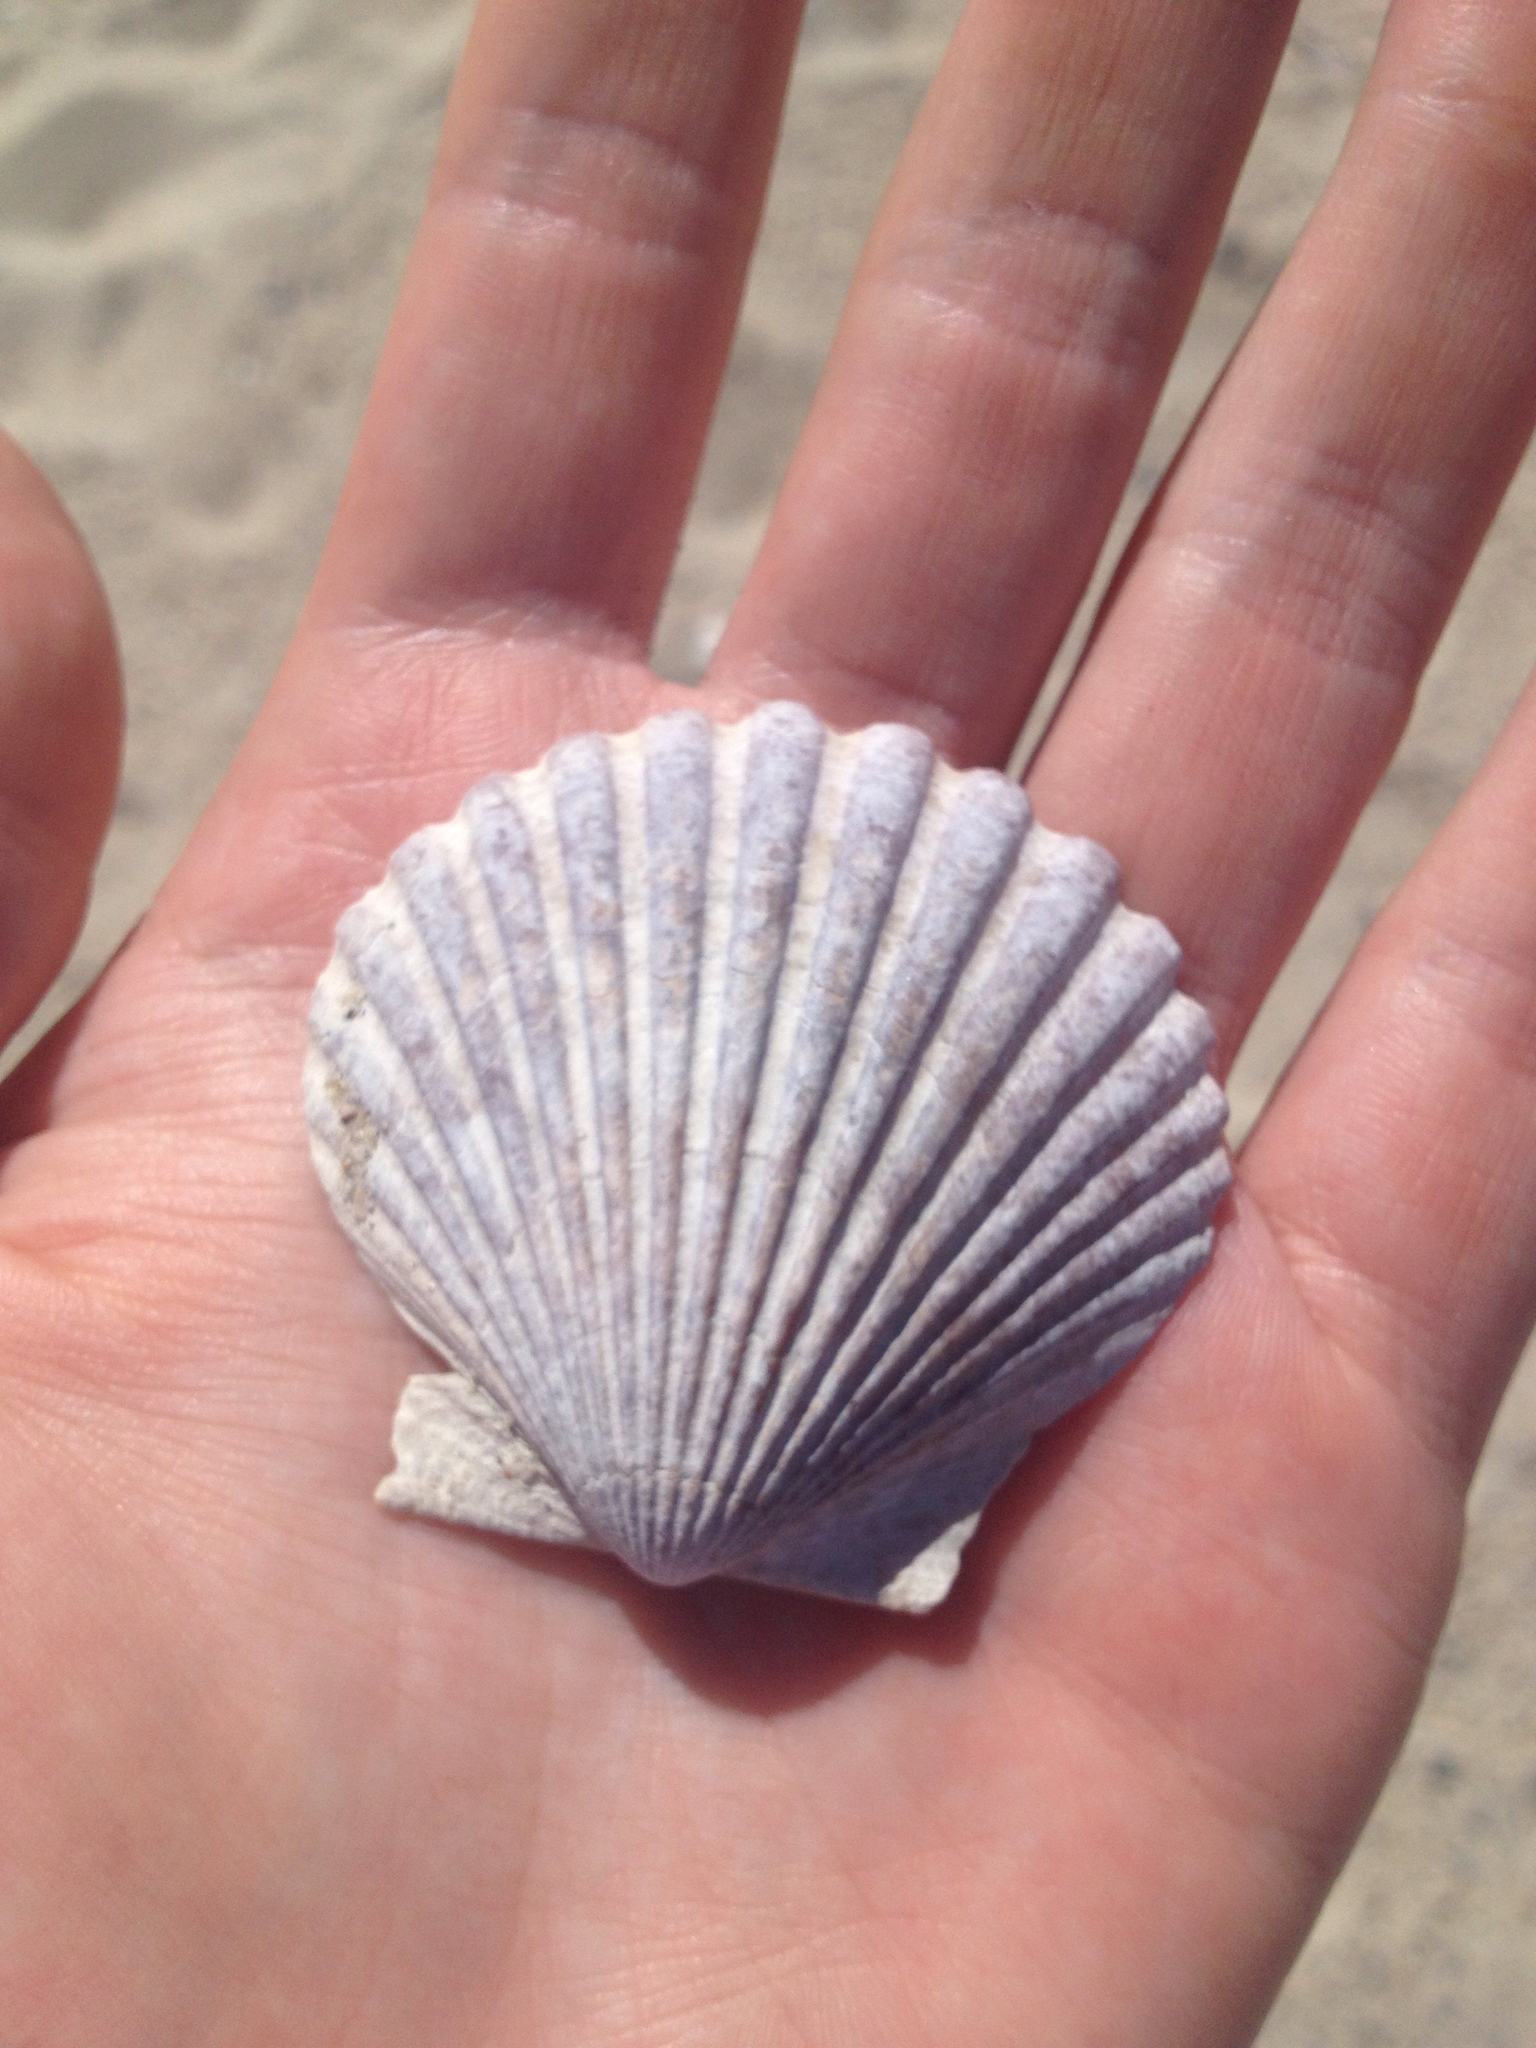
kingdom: Animalia
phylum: Mollusca
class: Bivalvia
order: Pectinida
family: Pectinidae
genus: Argopecten
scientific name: Argopecten irradians
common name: Atlantic bay scallop
